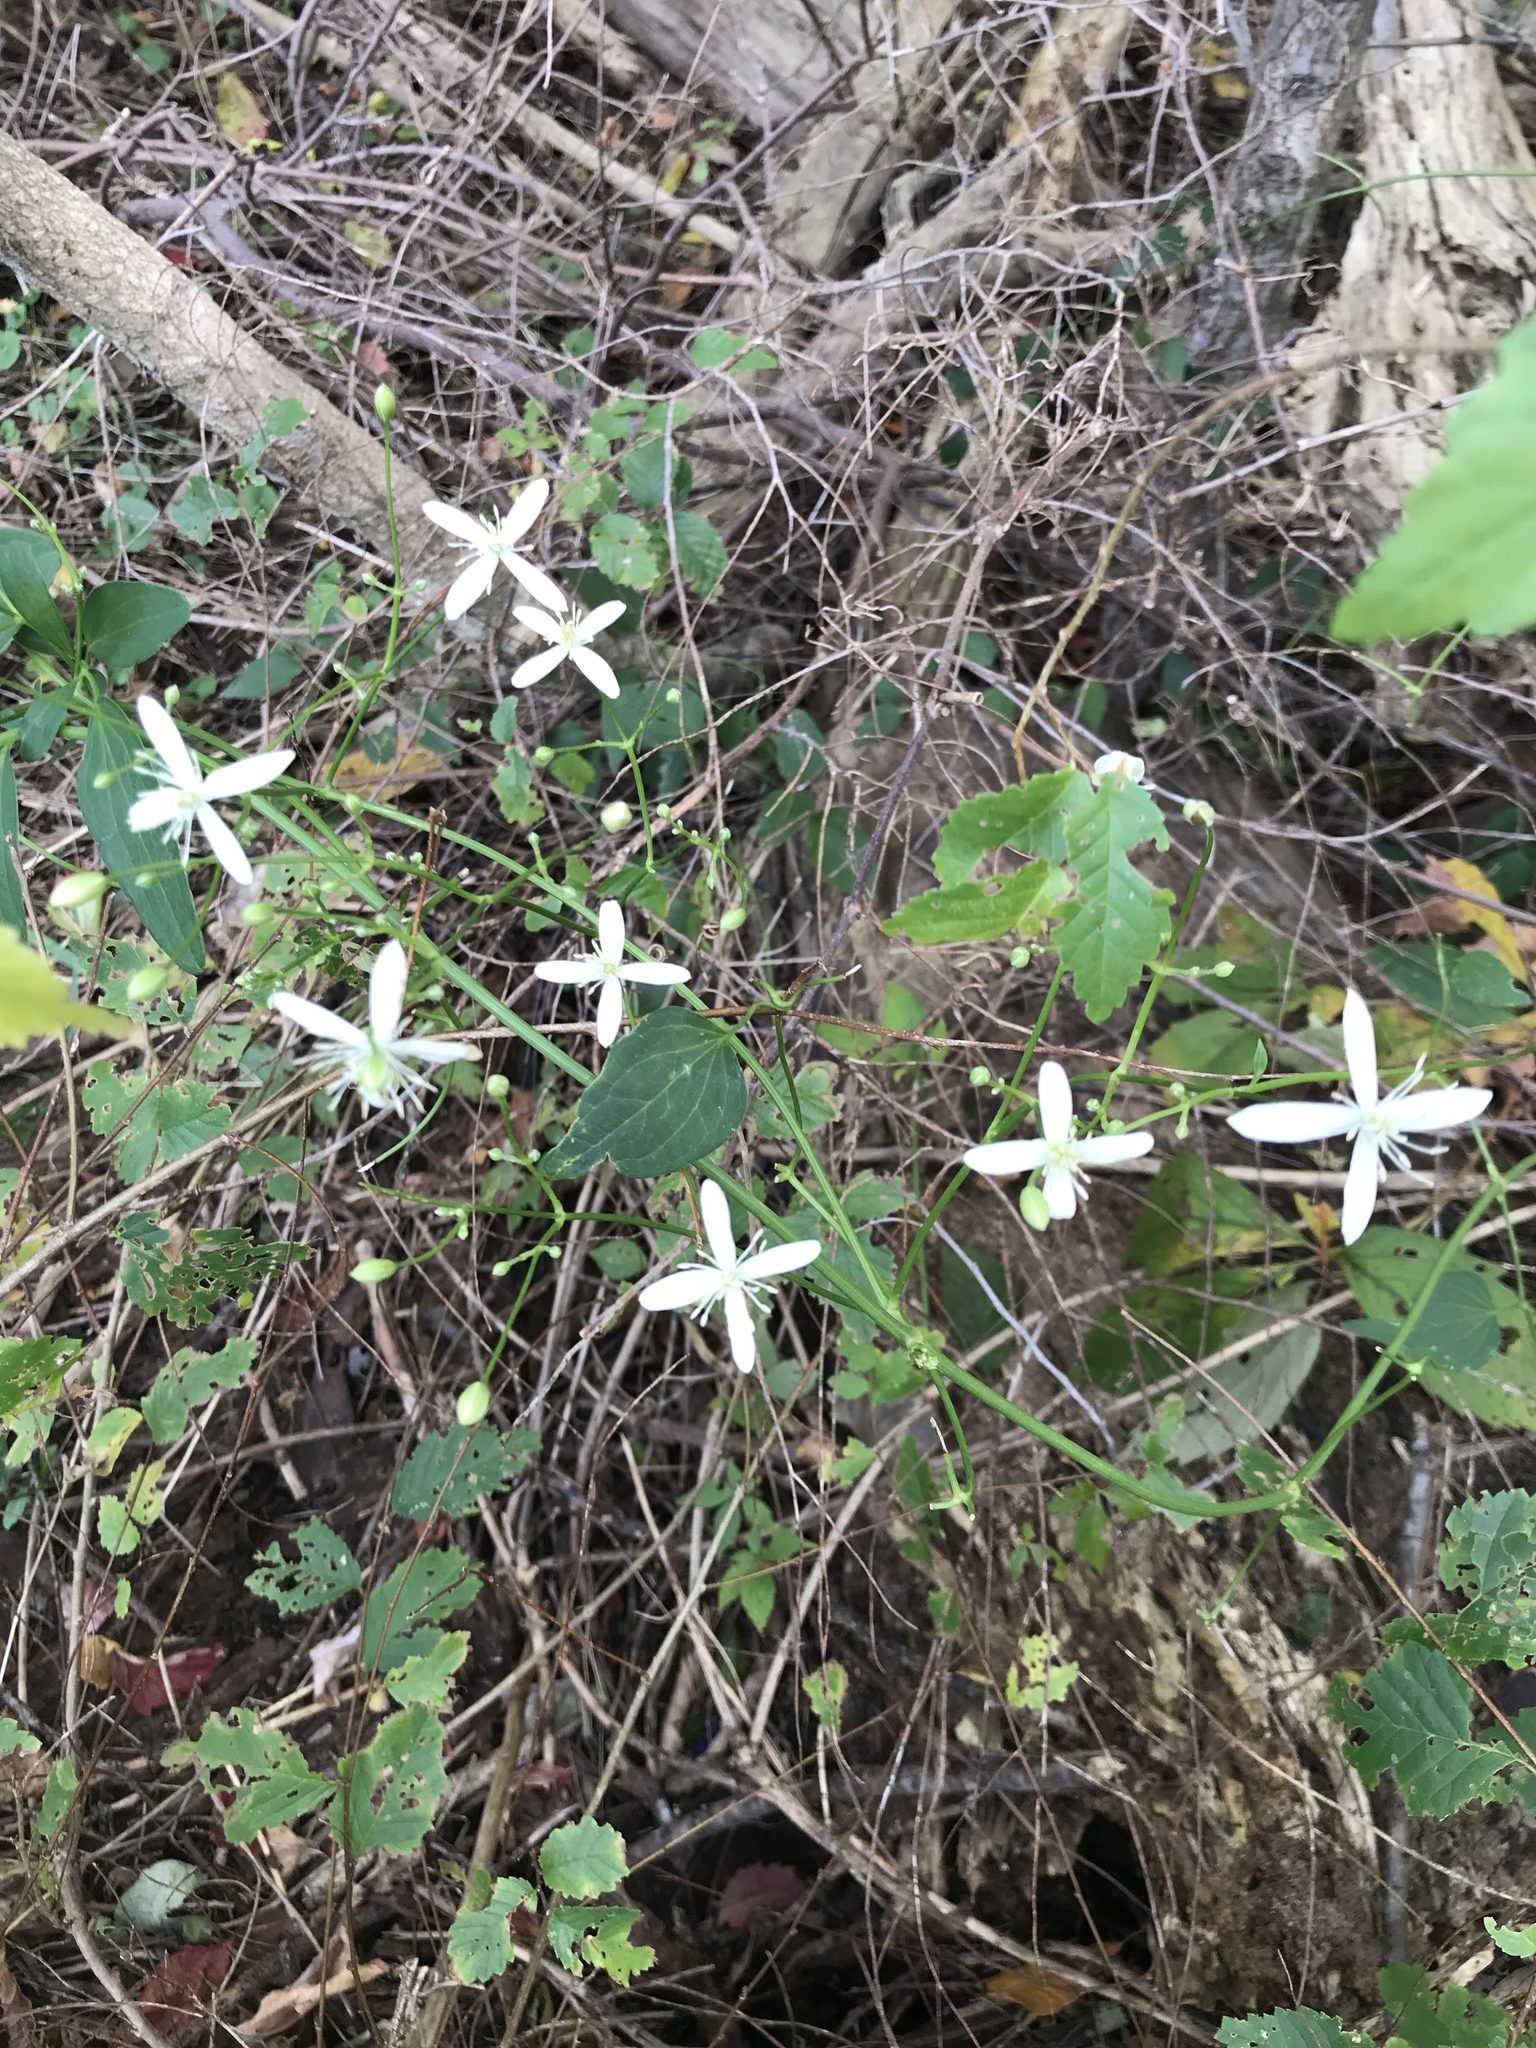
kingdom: Plantae
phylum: Tracheophyta
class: Magnoliopsida
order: Ranunculales
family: Ranunculaceae
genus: Clematis
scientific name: Clematis terniflora
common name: Sweet autumn clematis
